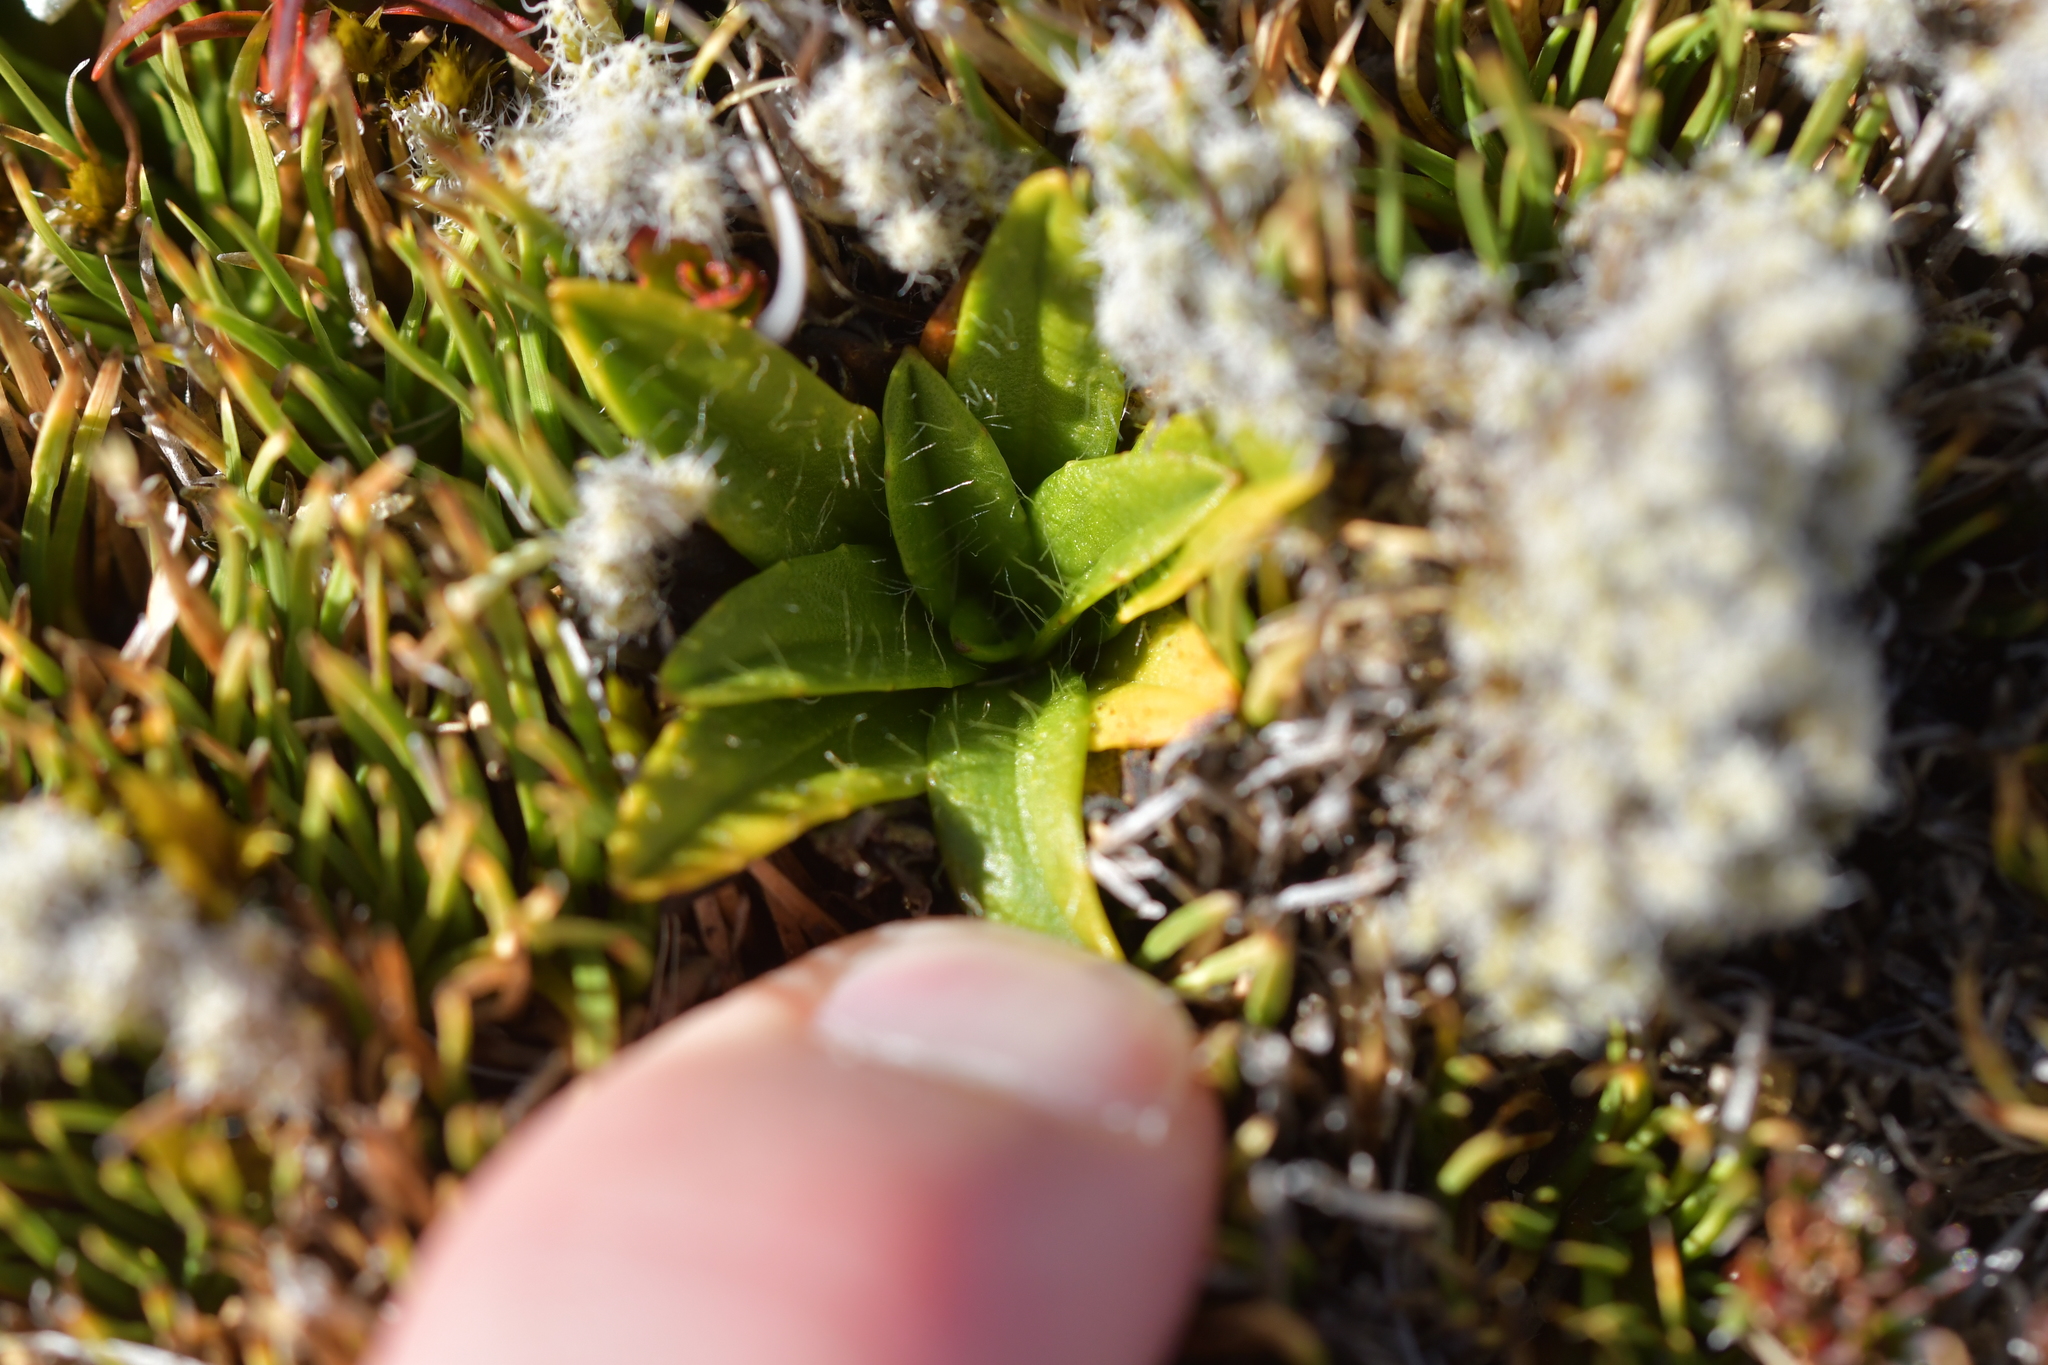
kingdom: Plantae
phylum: Tracheophyta
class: Magnoliopsida
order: Lamiales
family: Plantaginaceae
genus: Plantago
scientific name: Plantago unibracteata
